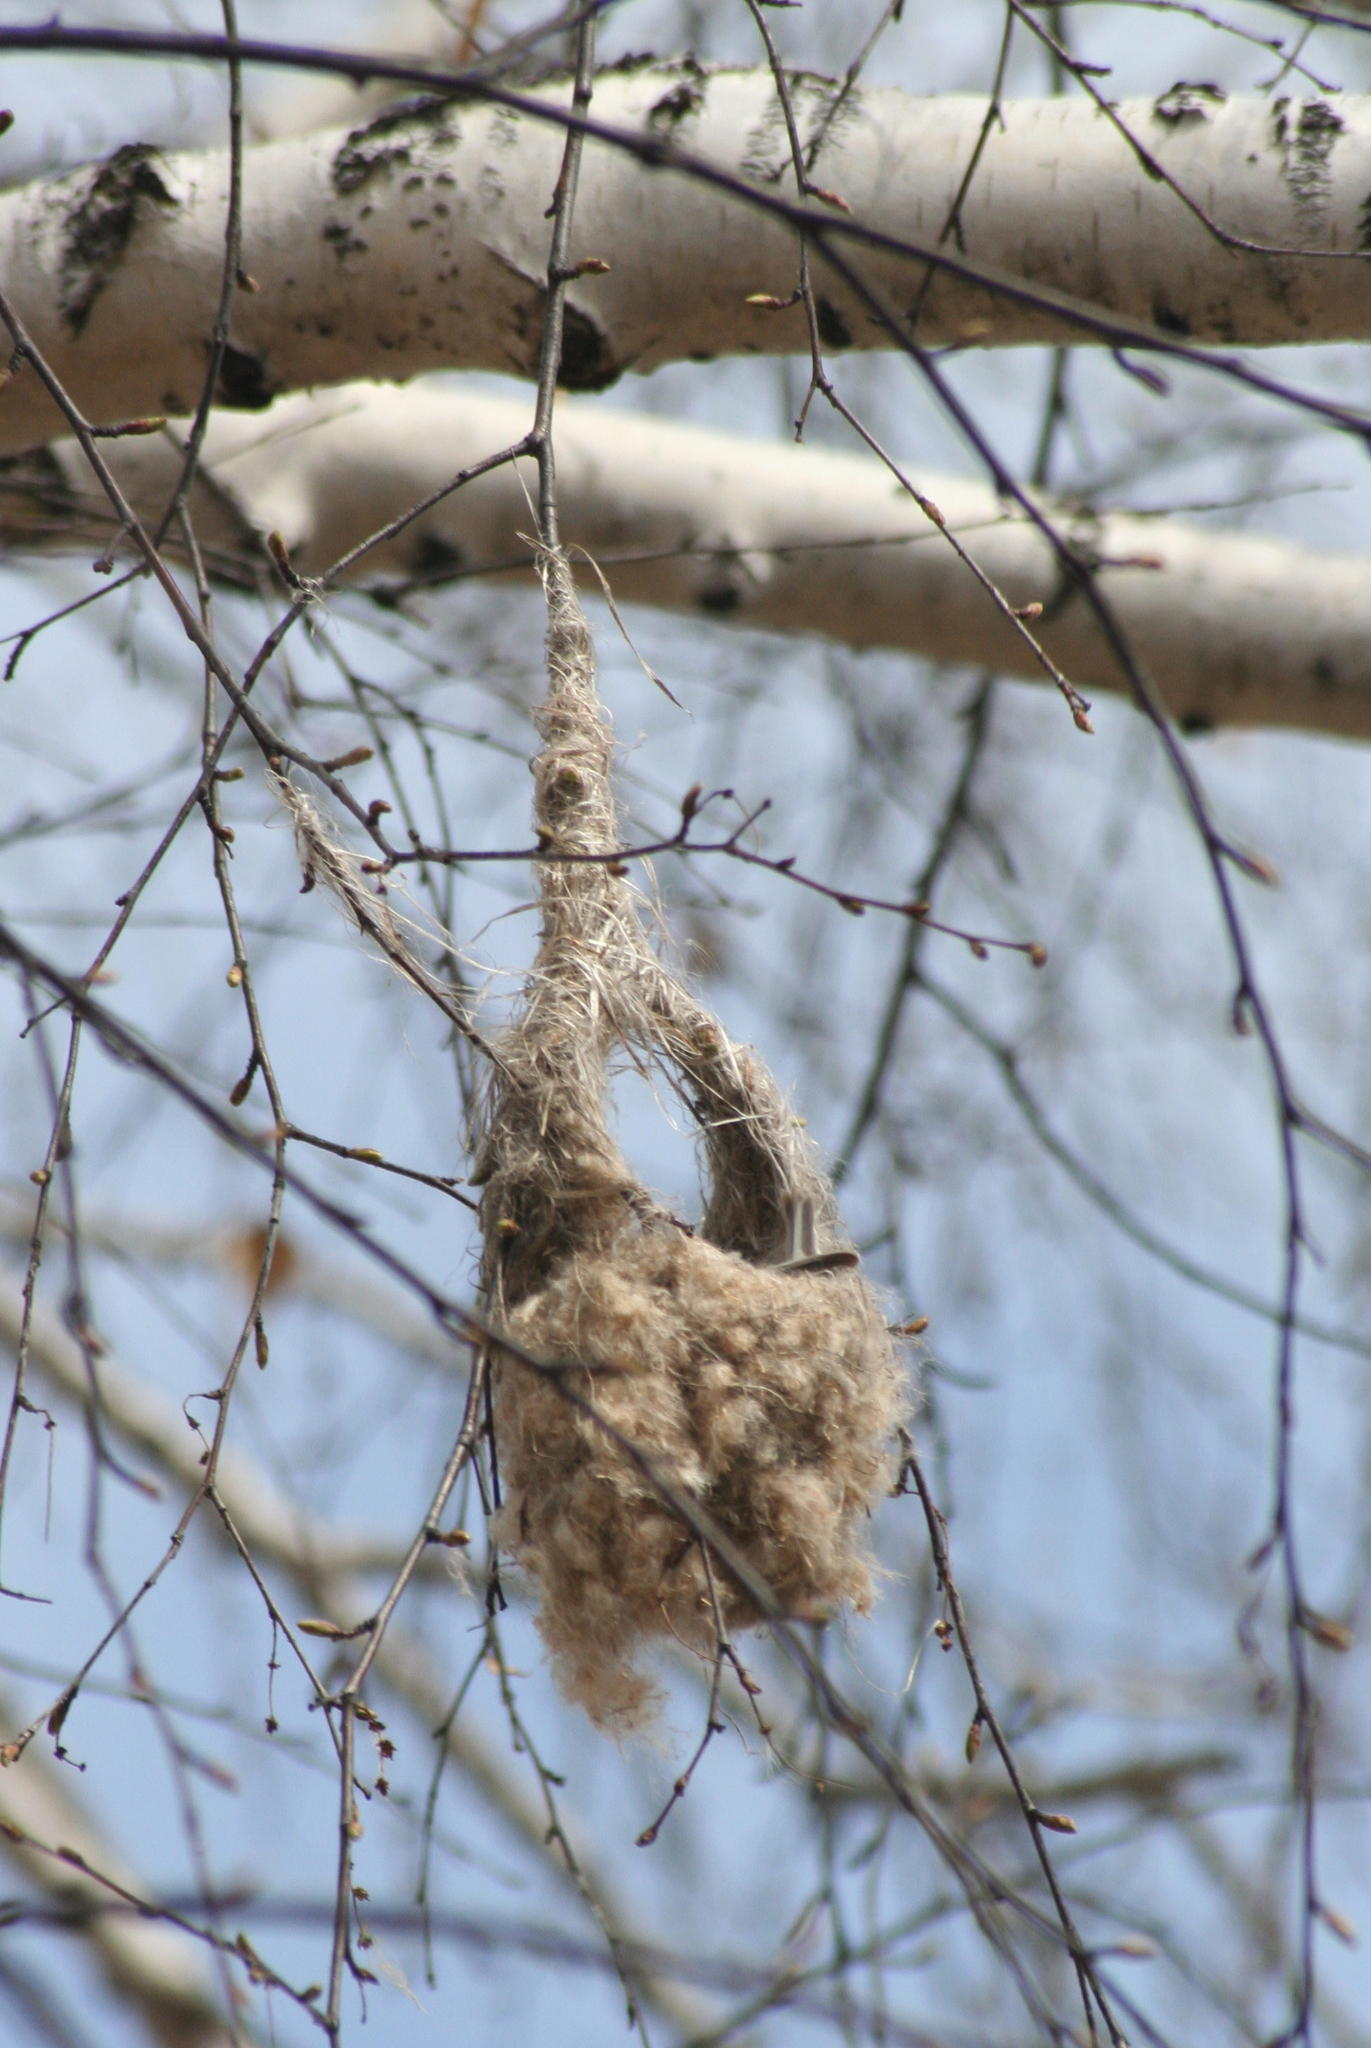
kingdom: Animalia
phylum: Chordata
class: Aves
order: Passeriformes
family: Remizidae
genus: Remiz
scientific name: Remiz pendulinus
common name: Eurasian penduline tit
